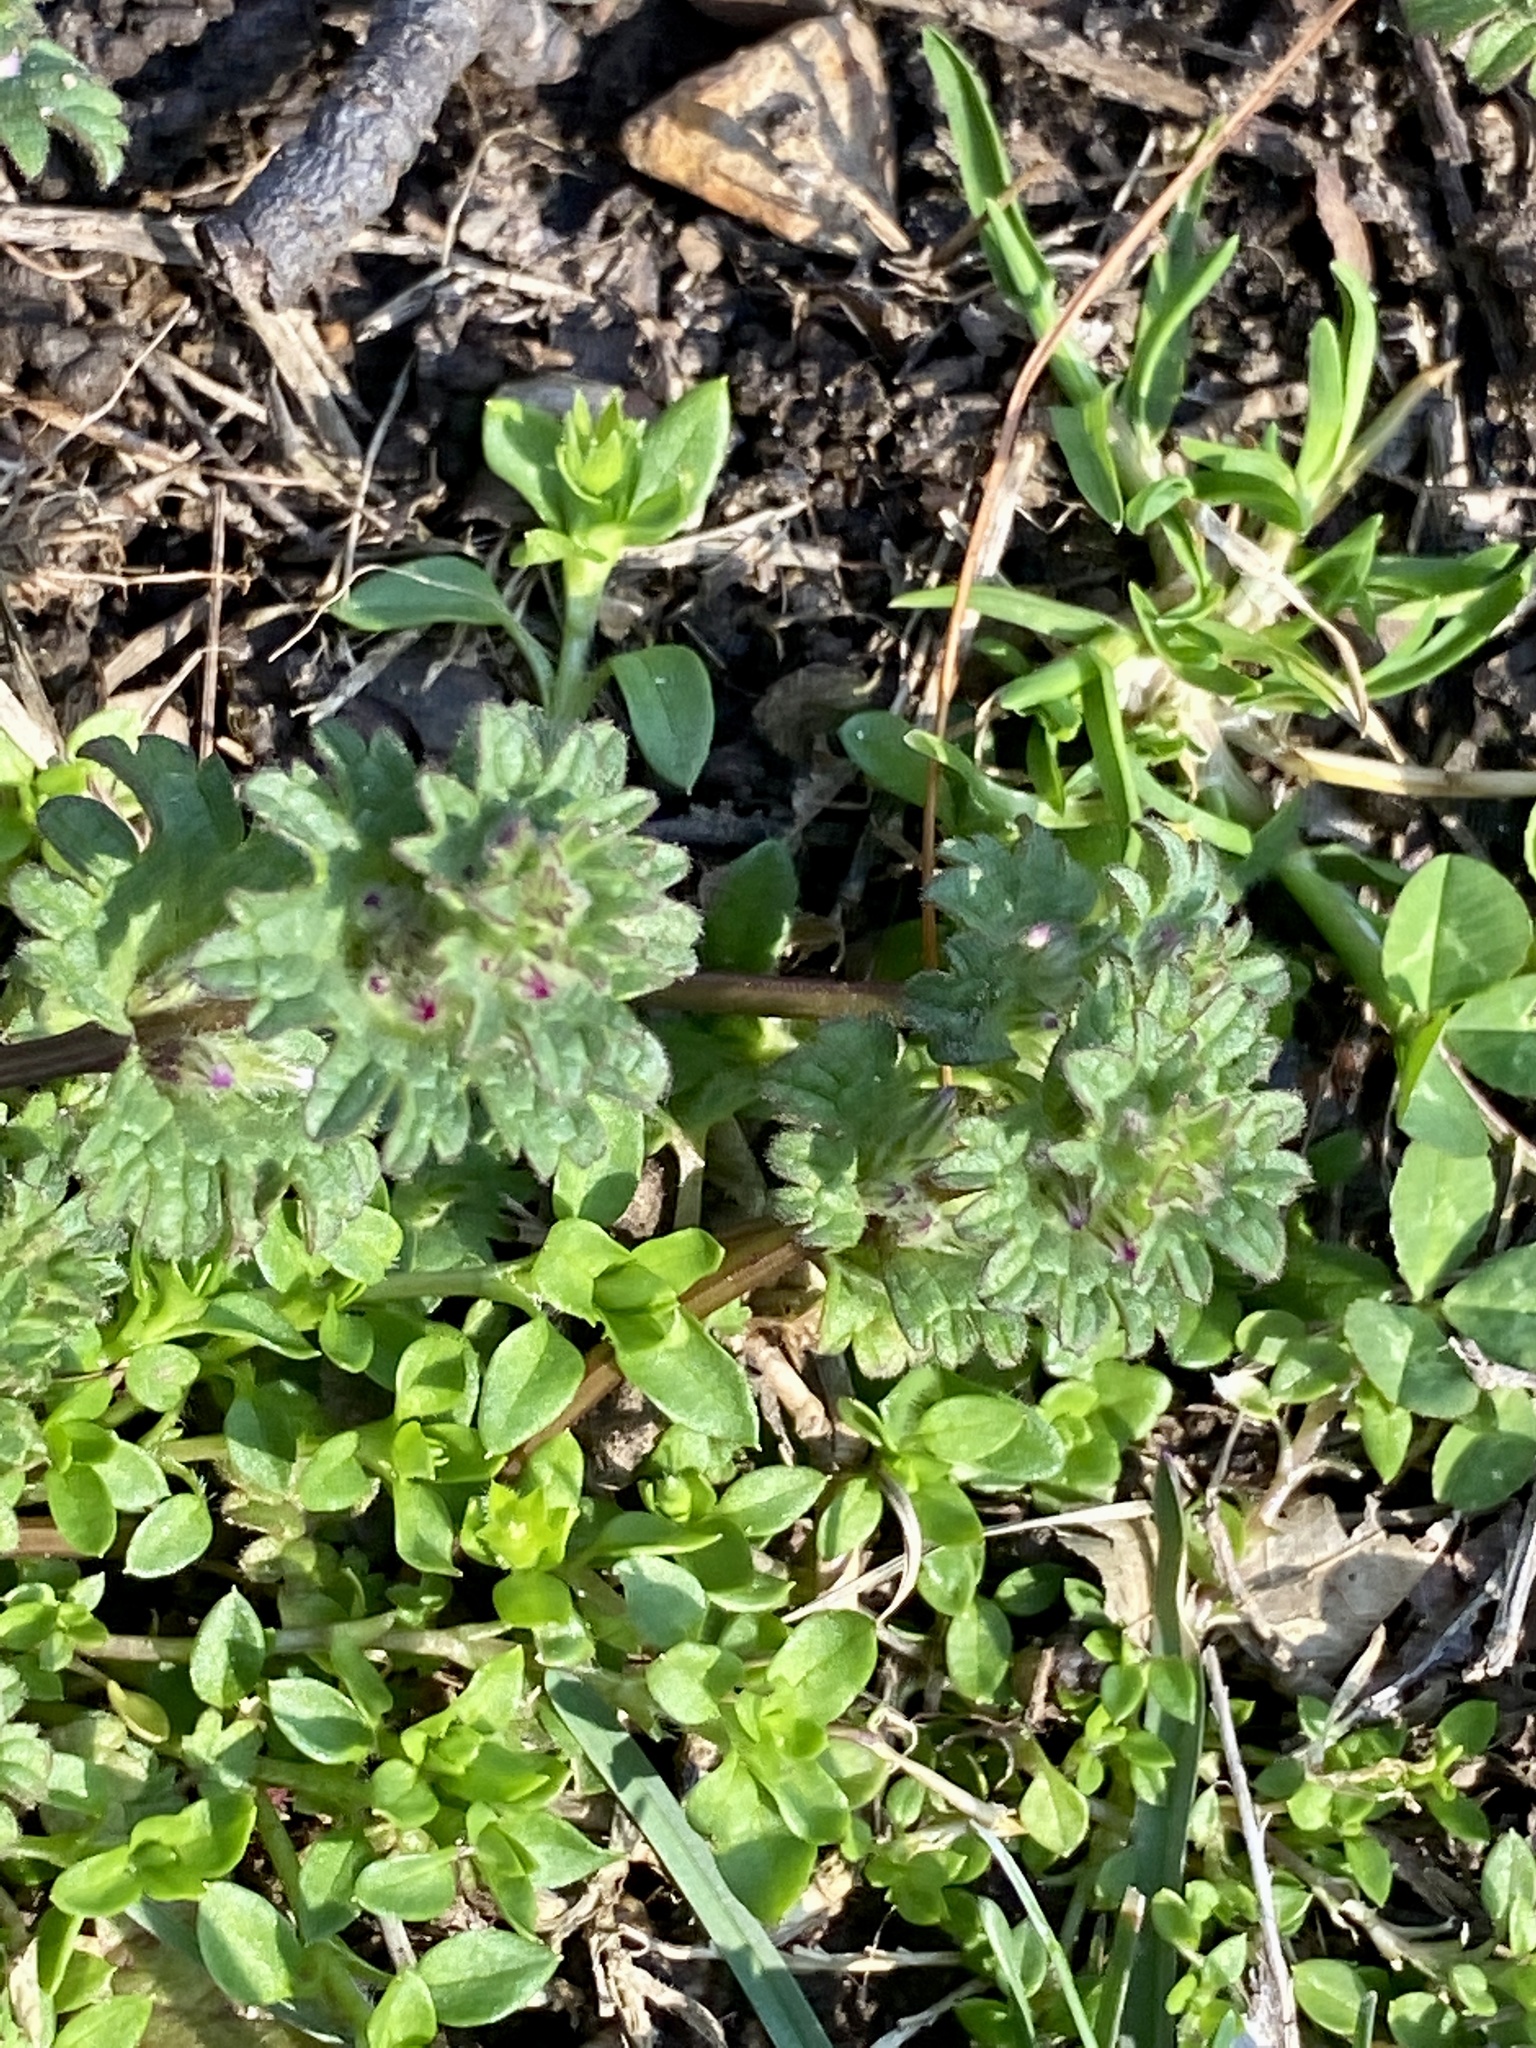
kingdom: Plantae
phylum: Tracheophyta
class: Magnoliopsida
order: Lamiales
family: Lamiaceae
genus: Lamium
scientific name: Lamium amplexicaule
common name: Henbit dead-nettle
